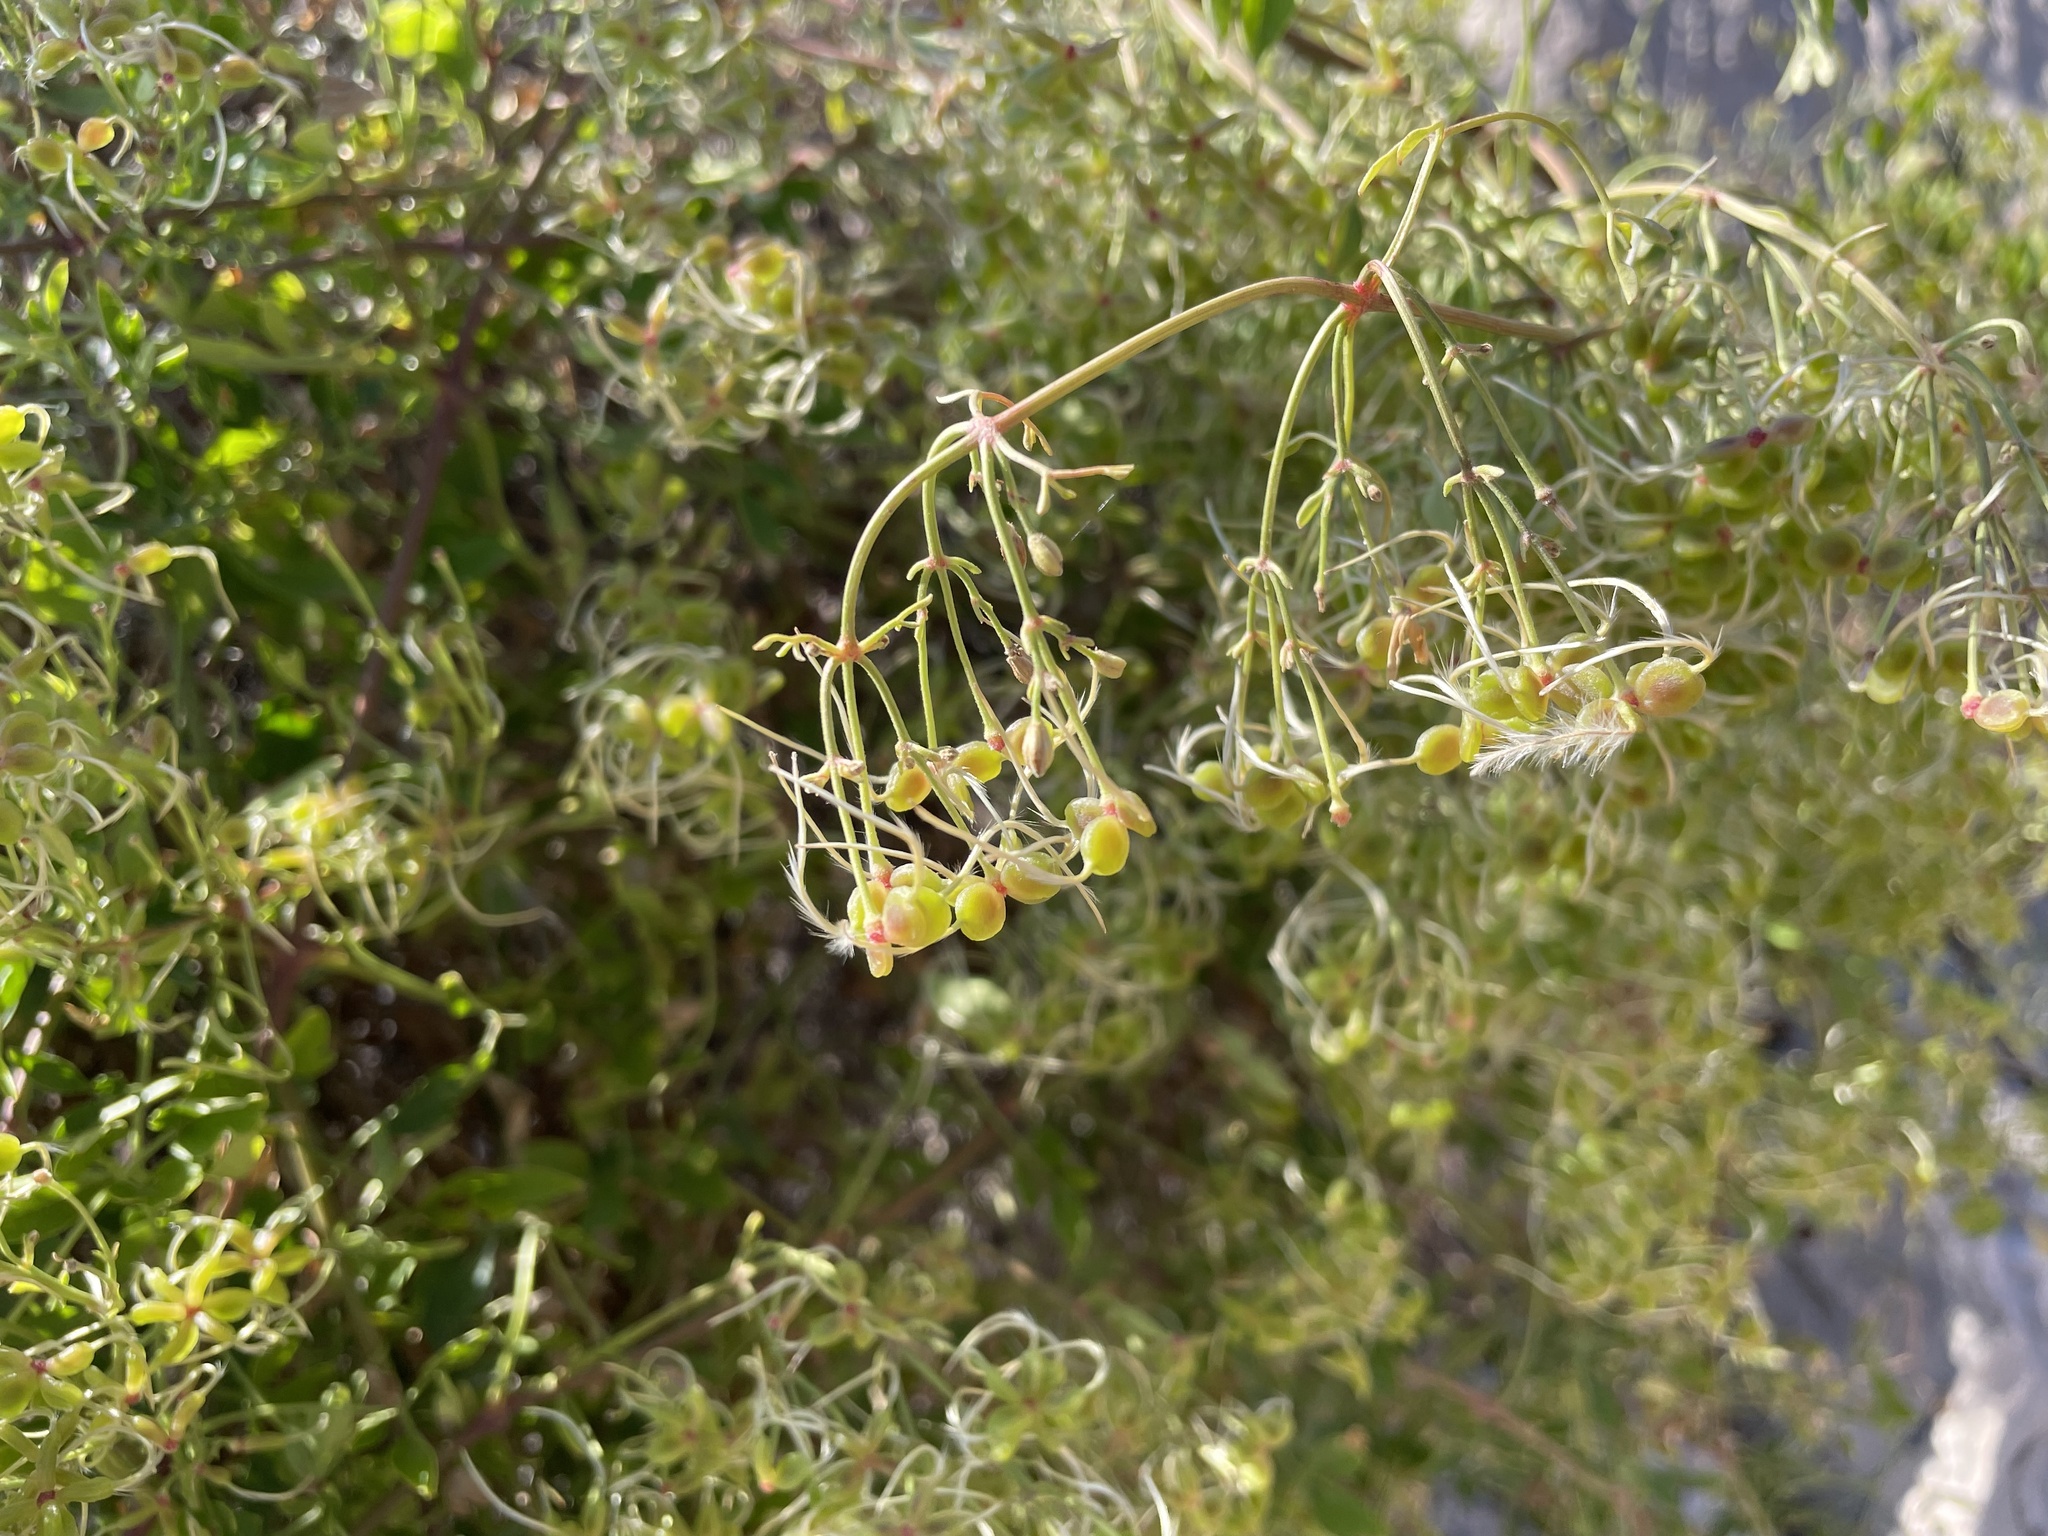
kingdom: Plantae
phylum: Tracheophyta
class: Magnoliopsida
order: Ranunculales
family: Ranunculaceae
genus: Clematis
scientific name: Clematis flammula
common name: Virgin's-bower
